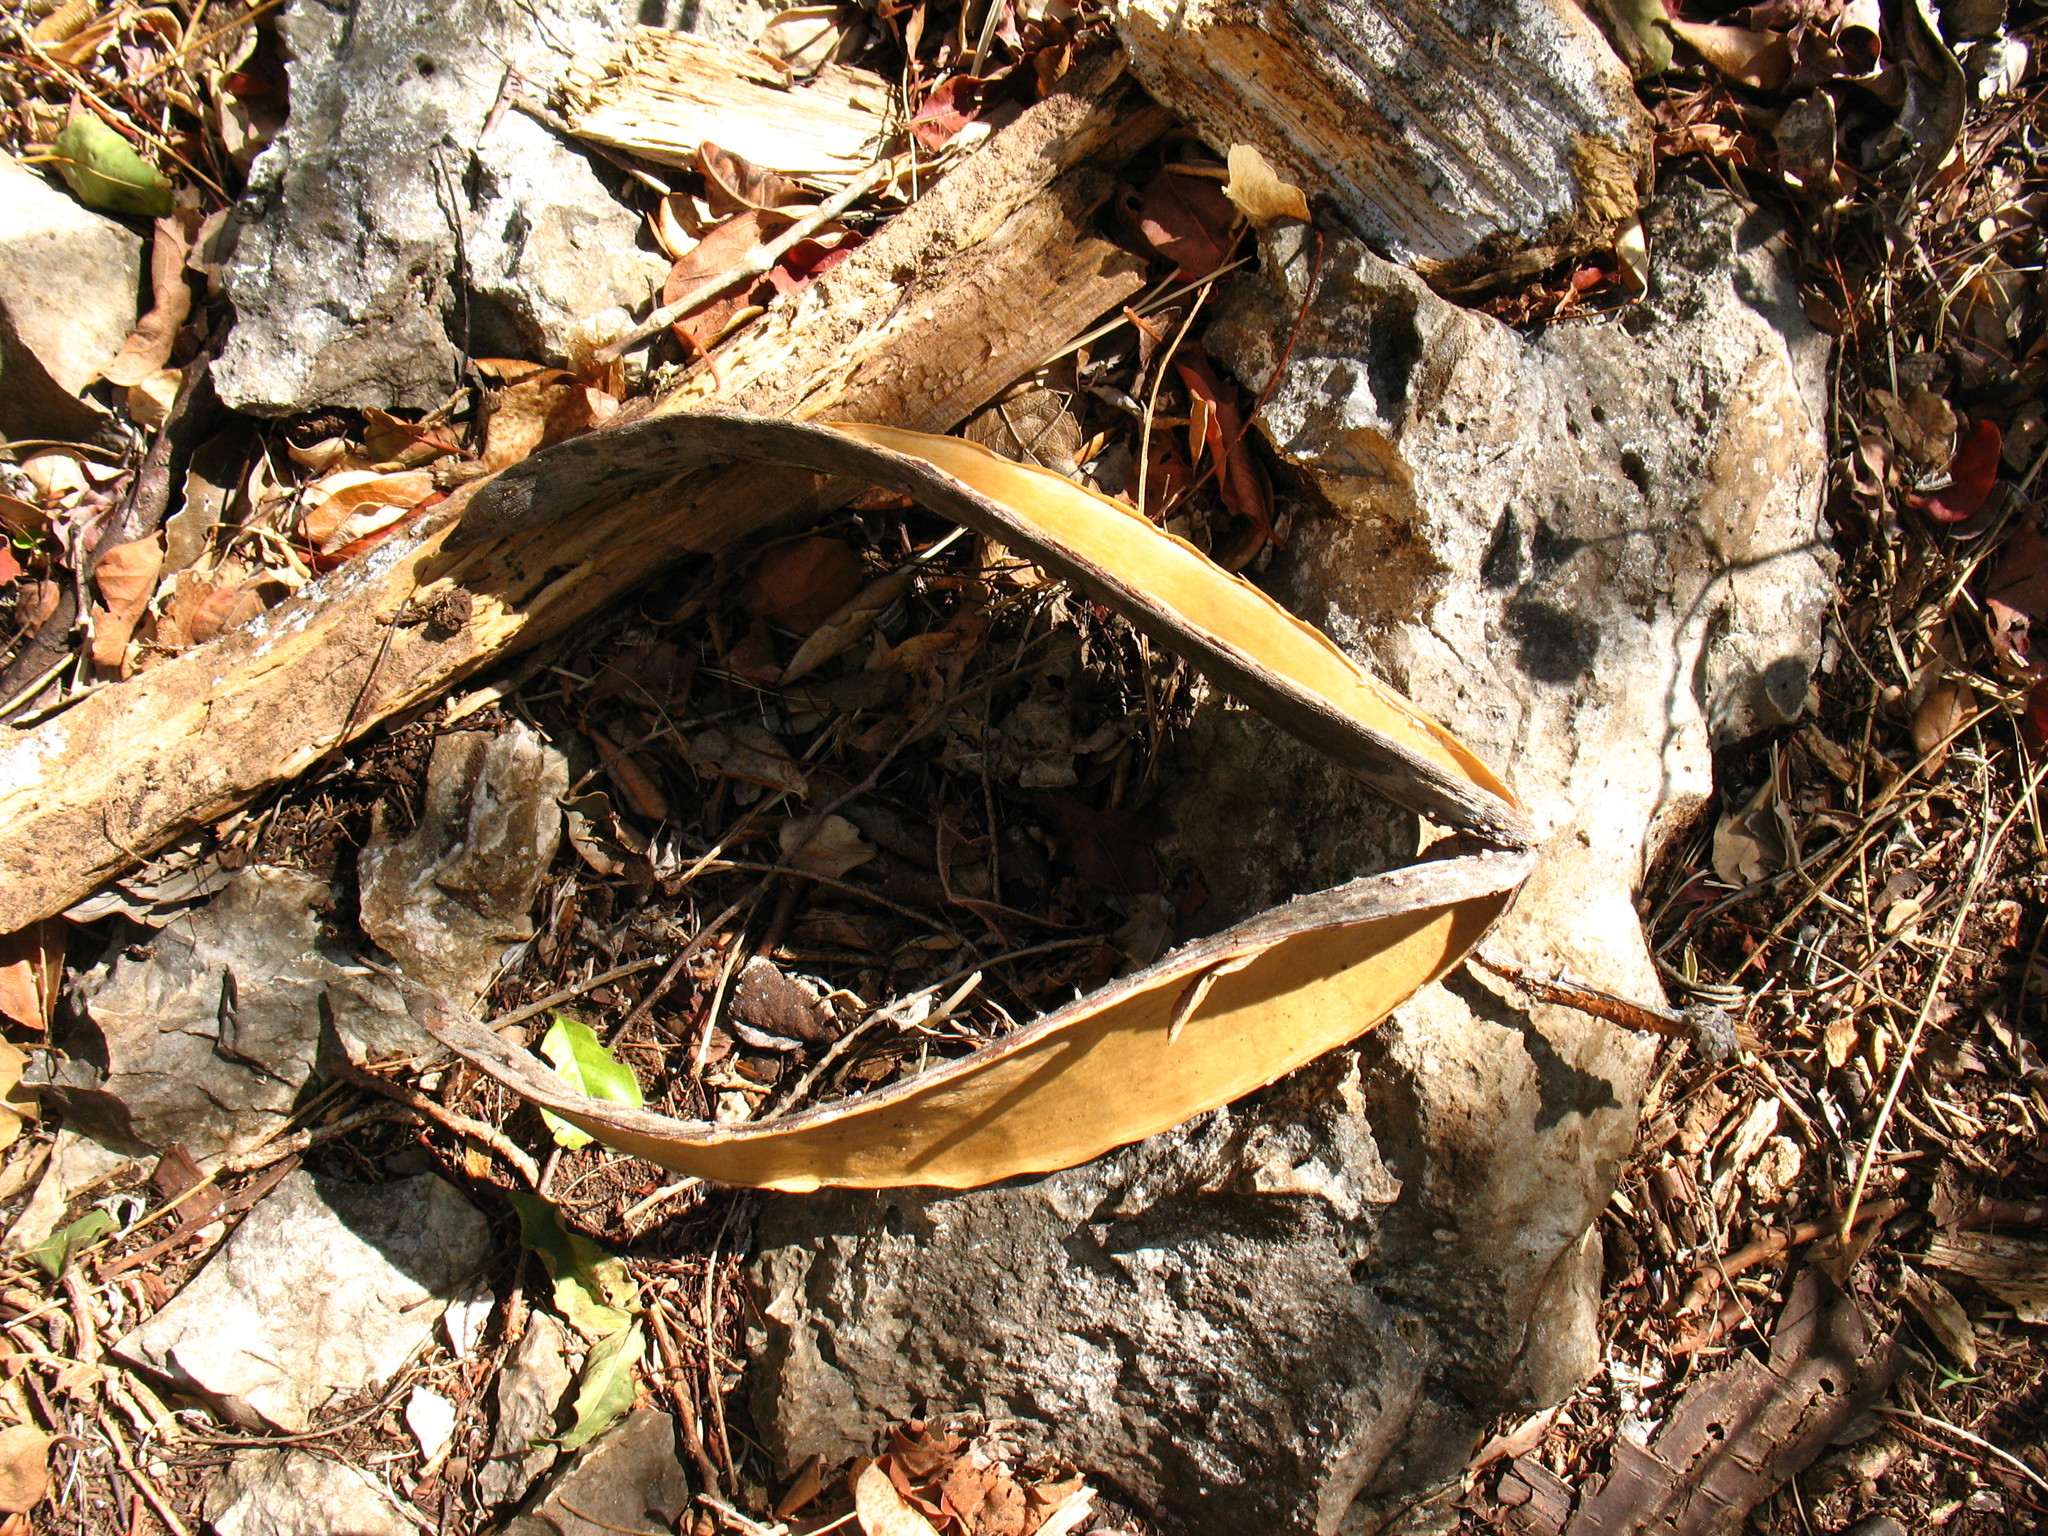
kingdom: Plantae
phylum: Tracheophyta
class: Magnoliopsida
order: Gentianales
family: Apocynaceae
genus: Plumeria
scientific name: Plumeria rubra
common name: Pagoda-tree
